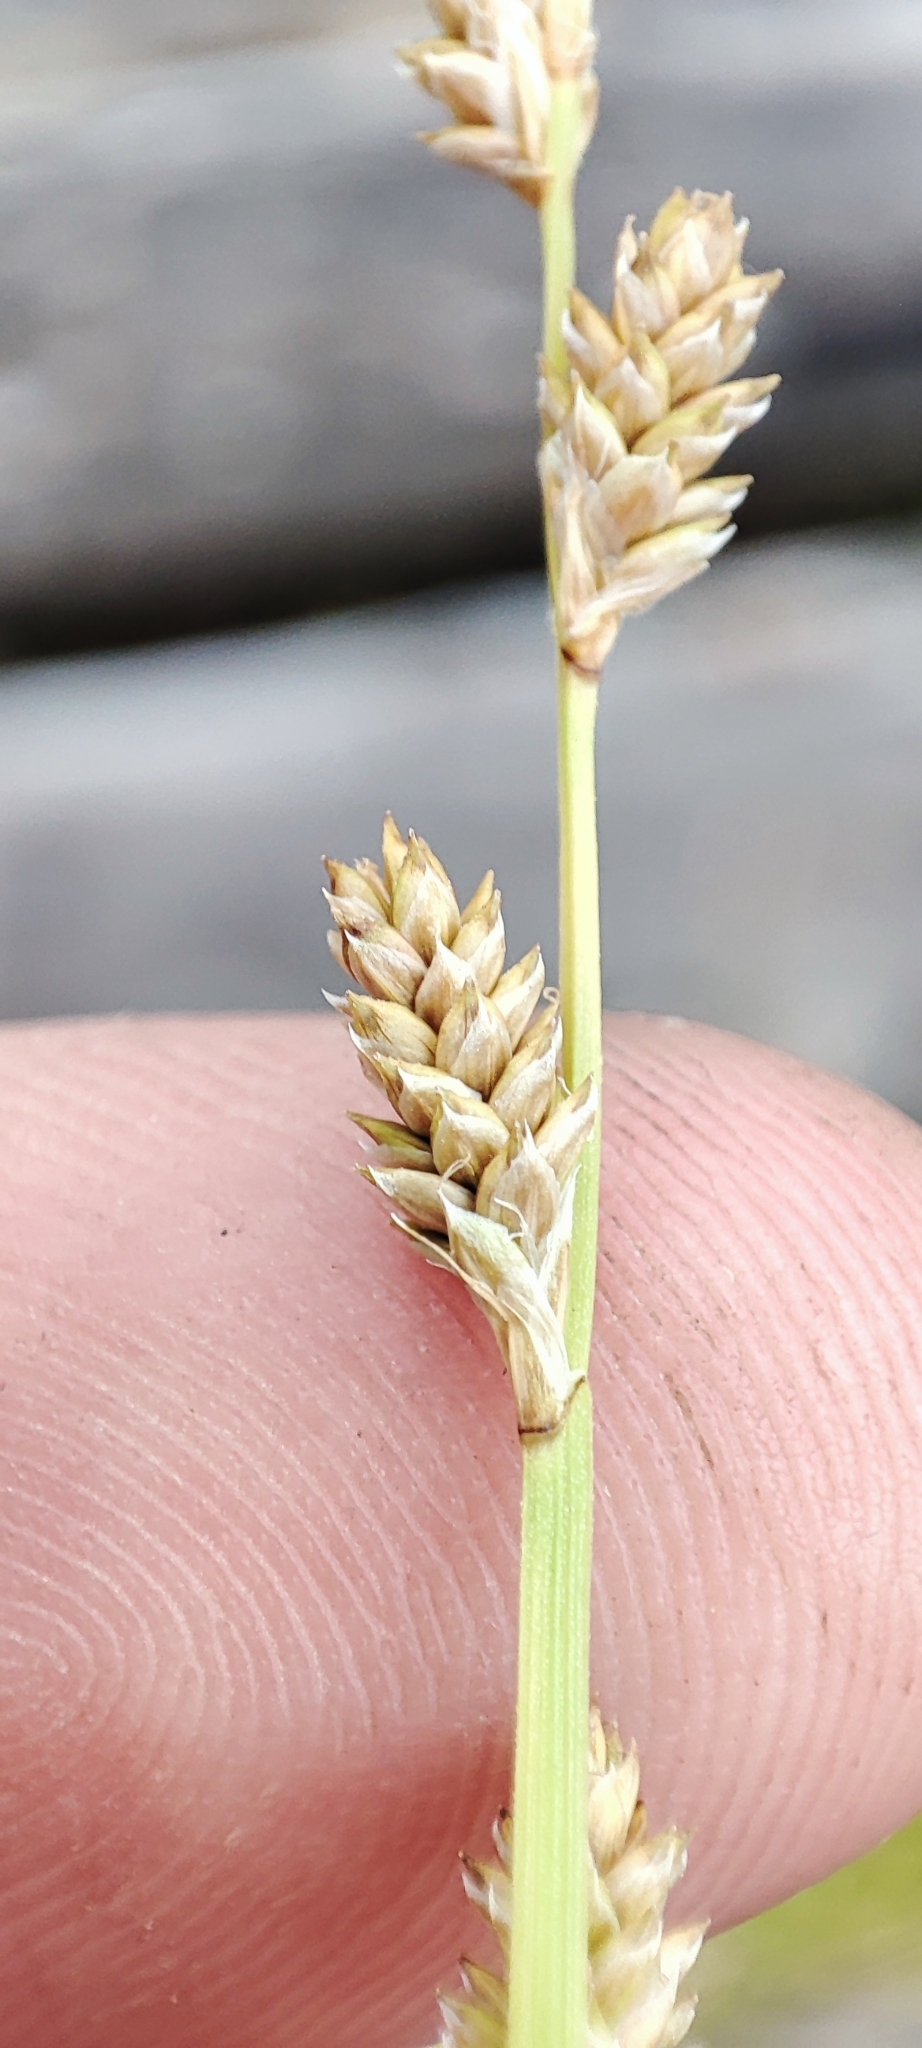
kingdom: Plantae
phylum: Tracheophyta
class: Liliopsida
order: Poales
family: Cyperaceae
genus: Carex
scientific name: Carex canescens
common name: White sedge
